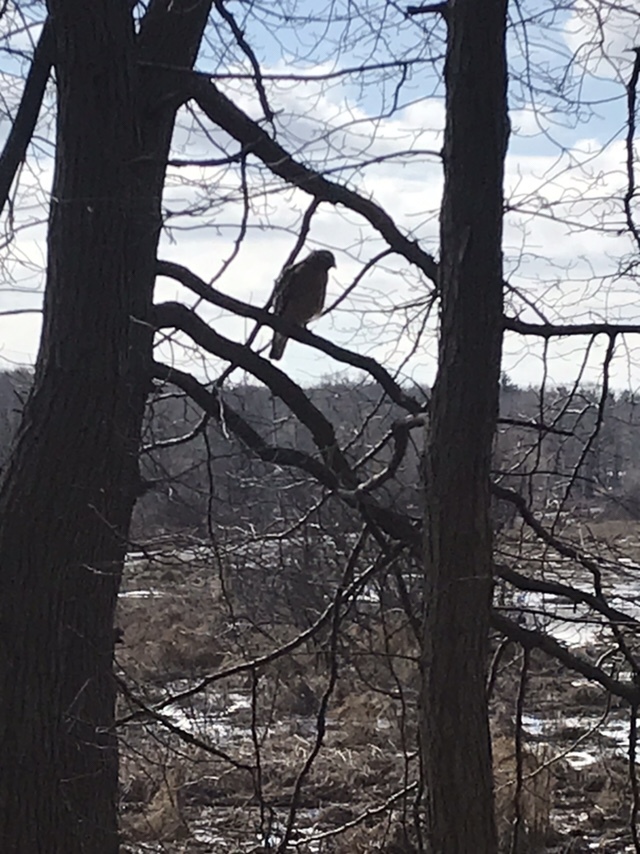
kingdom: Animalia
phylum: Chordata
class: Aves
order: Accipitriformes
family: Accipitridae
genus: Buteo
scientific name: Buteo lineatus
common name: Red-shouldered hawk
